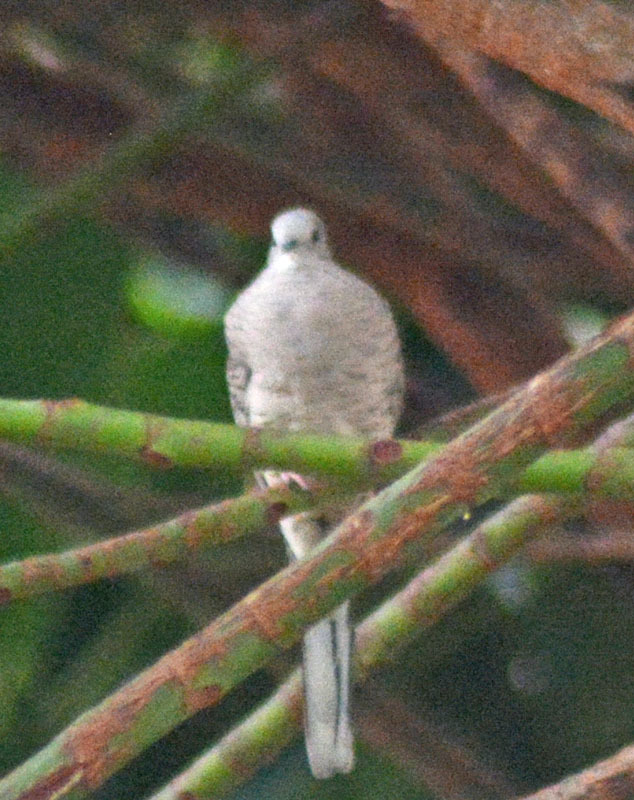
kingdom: Animalia
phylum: Chordata
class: Aves
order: Columbiformes
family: Columbidae
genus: Columbina
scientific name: Columbina inca
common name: Inca dove
